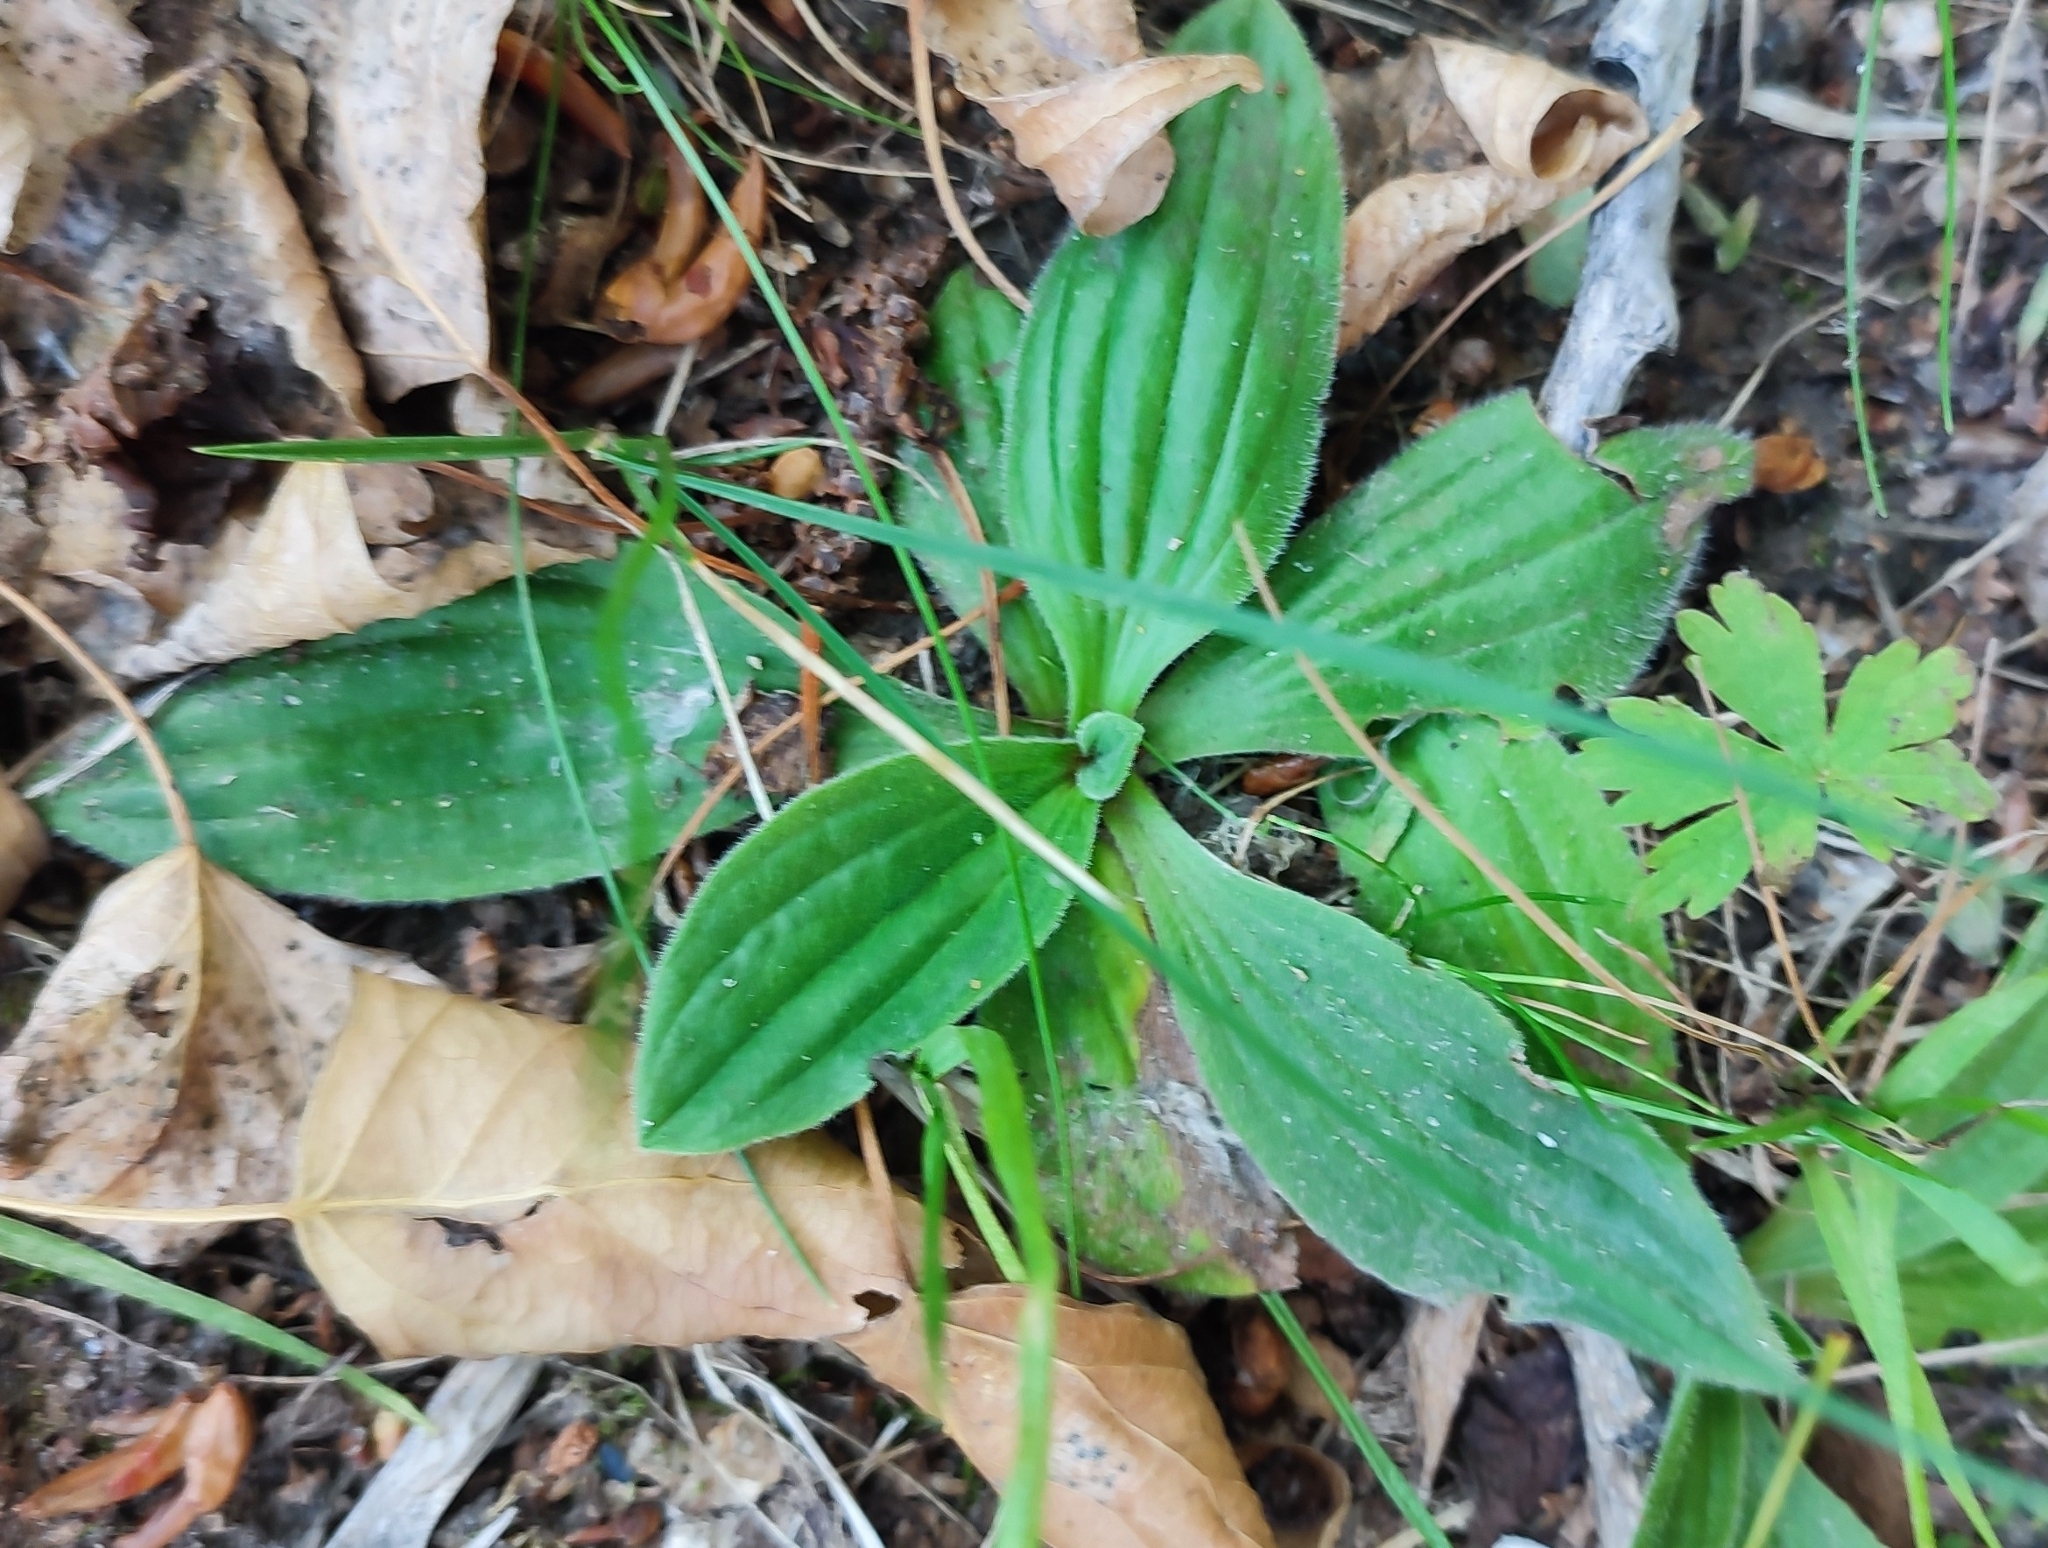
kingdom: Plantae
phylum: Tracheophyta
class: Magnoliopsida
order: Lamiales
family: Plantaginaceae
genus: Plantago
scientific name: Plantago media
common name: Hoary plantain
